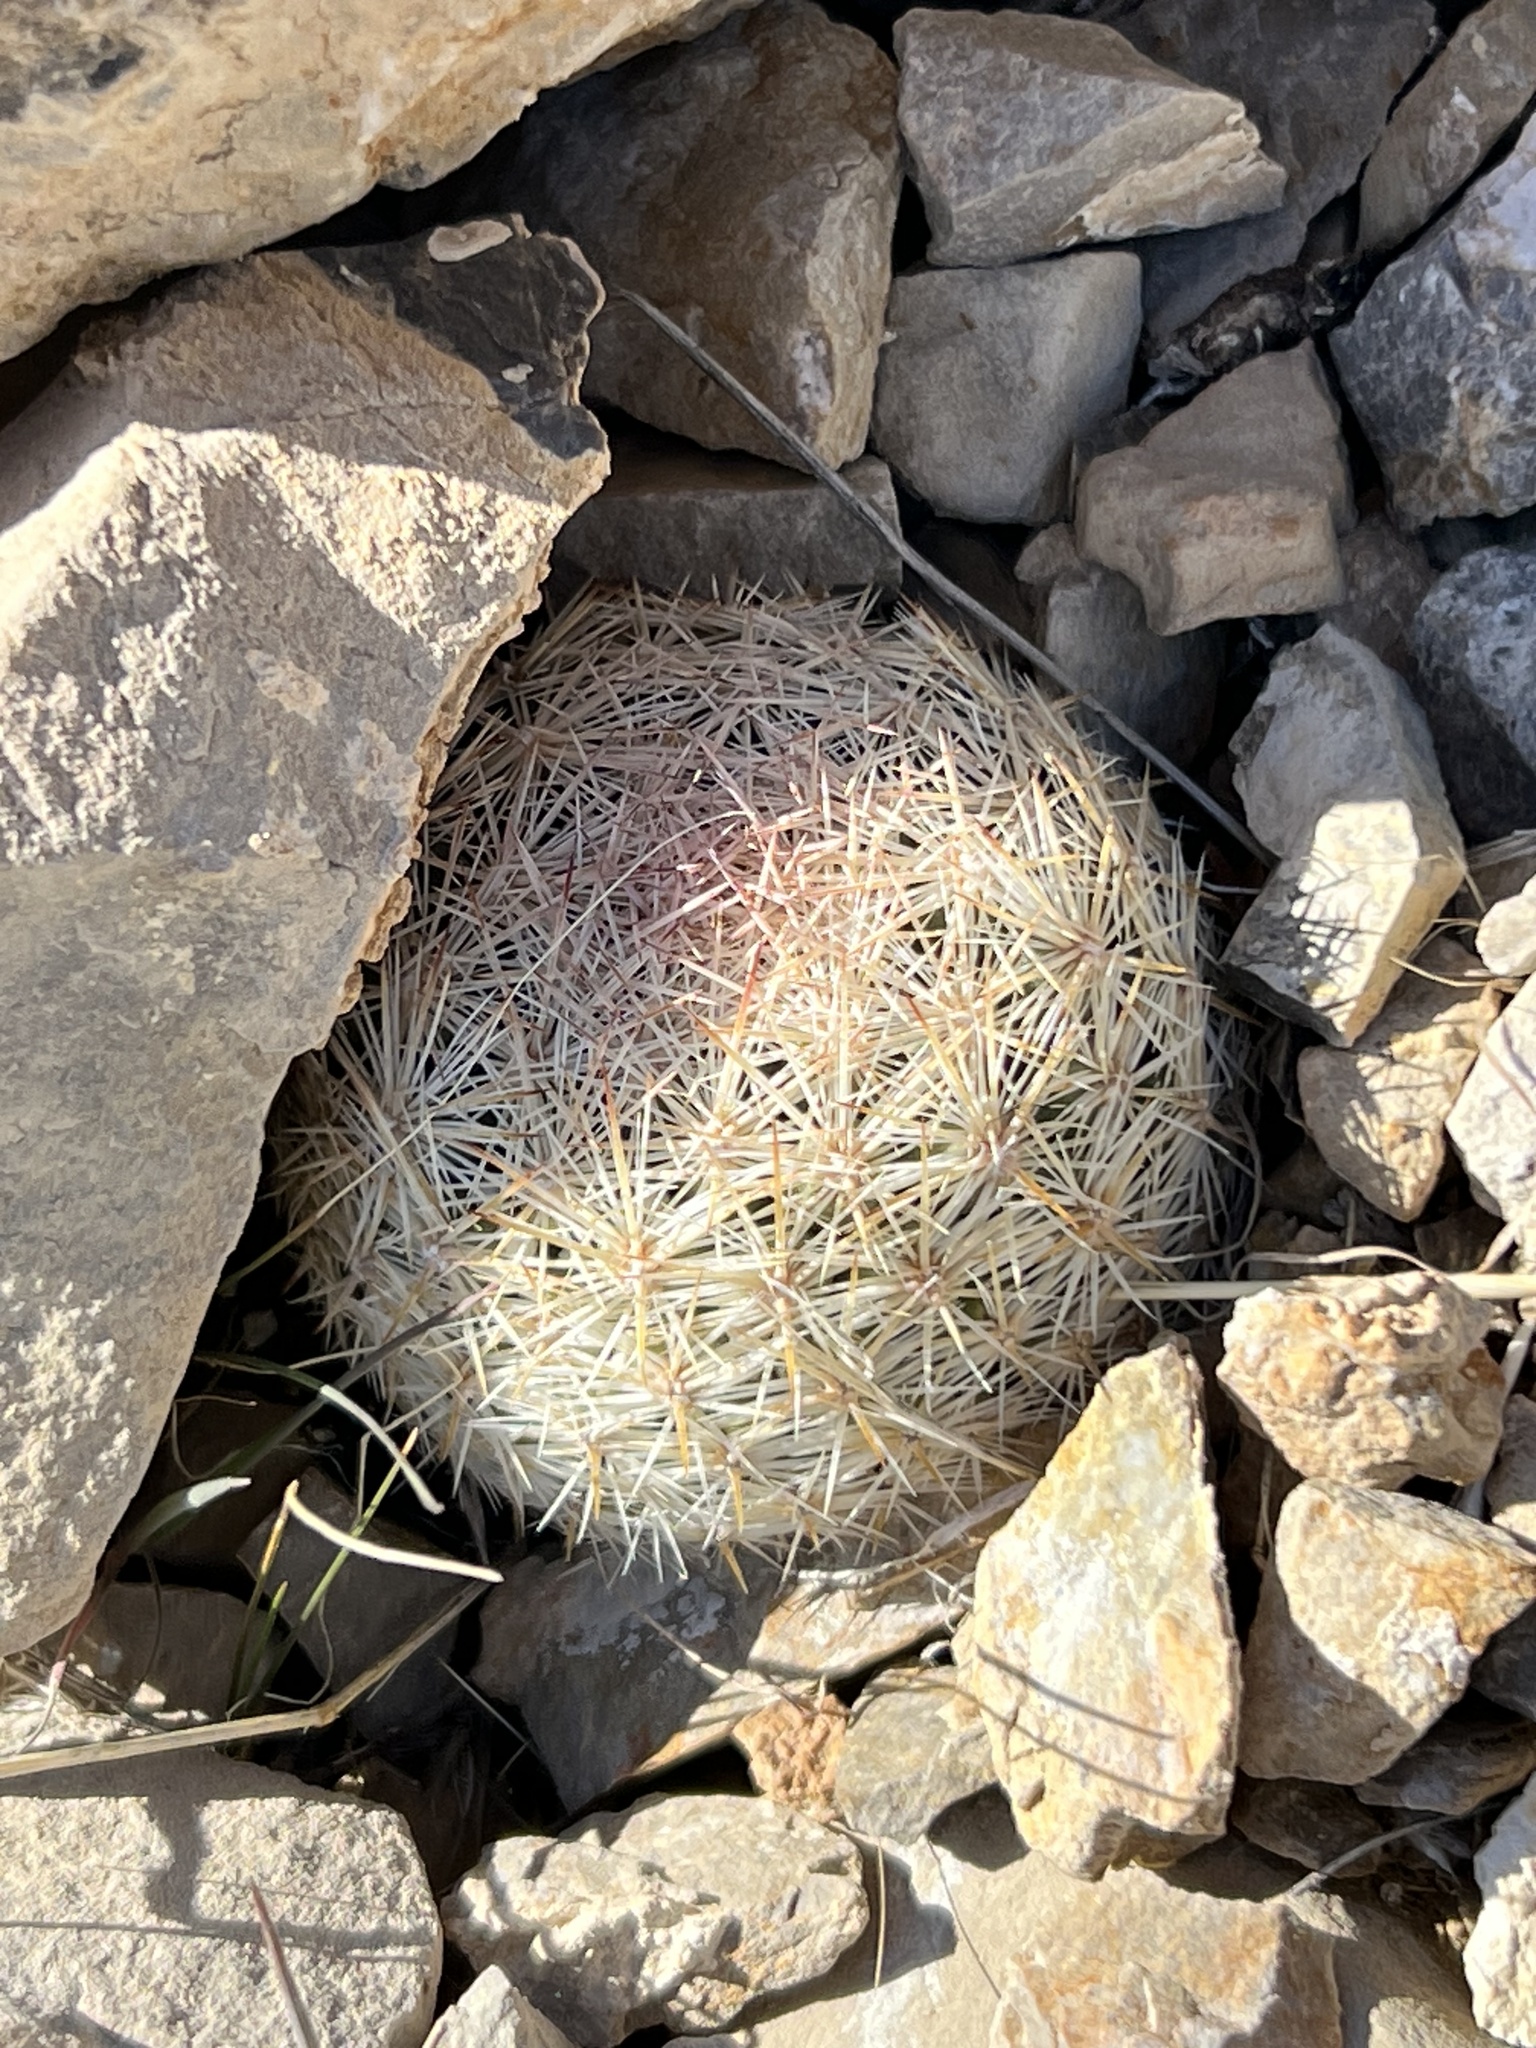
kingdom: Plantae
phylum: Tracheophyta
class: Magnoliopsida
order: Caryophyllales
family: Cactaceae
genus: Pelecyphora
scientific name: Pelecyphora dasyacantha
